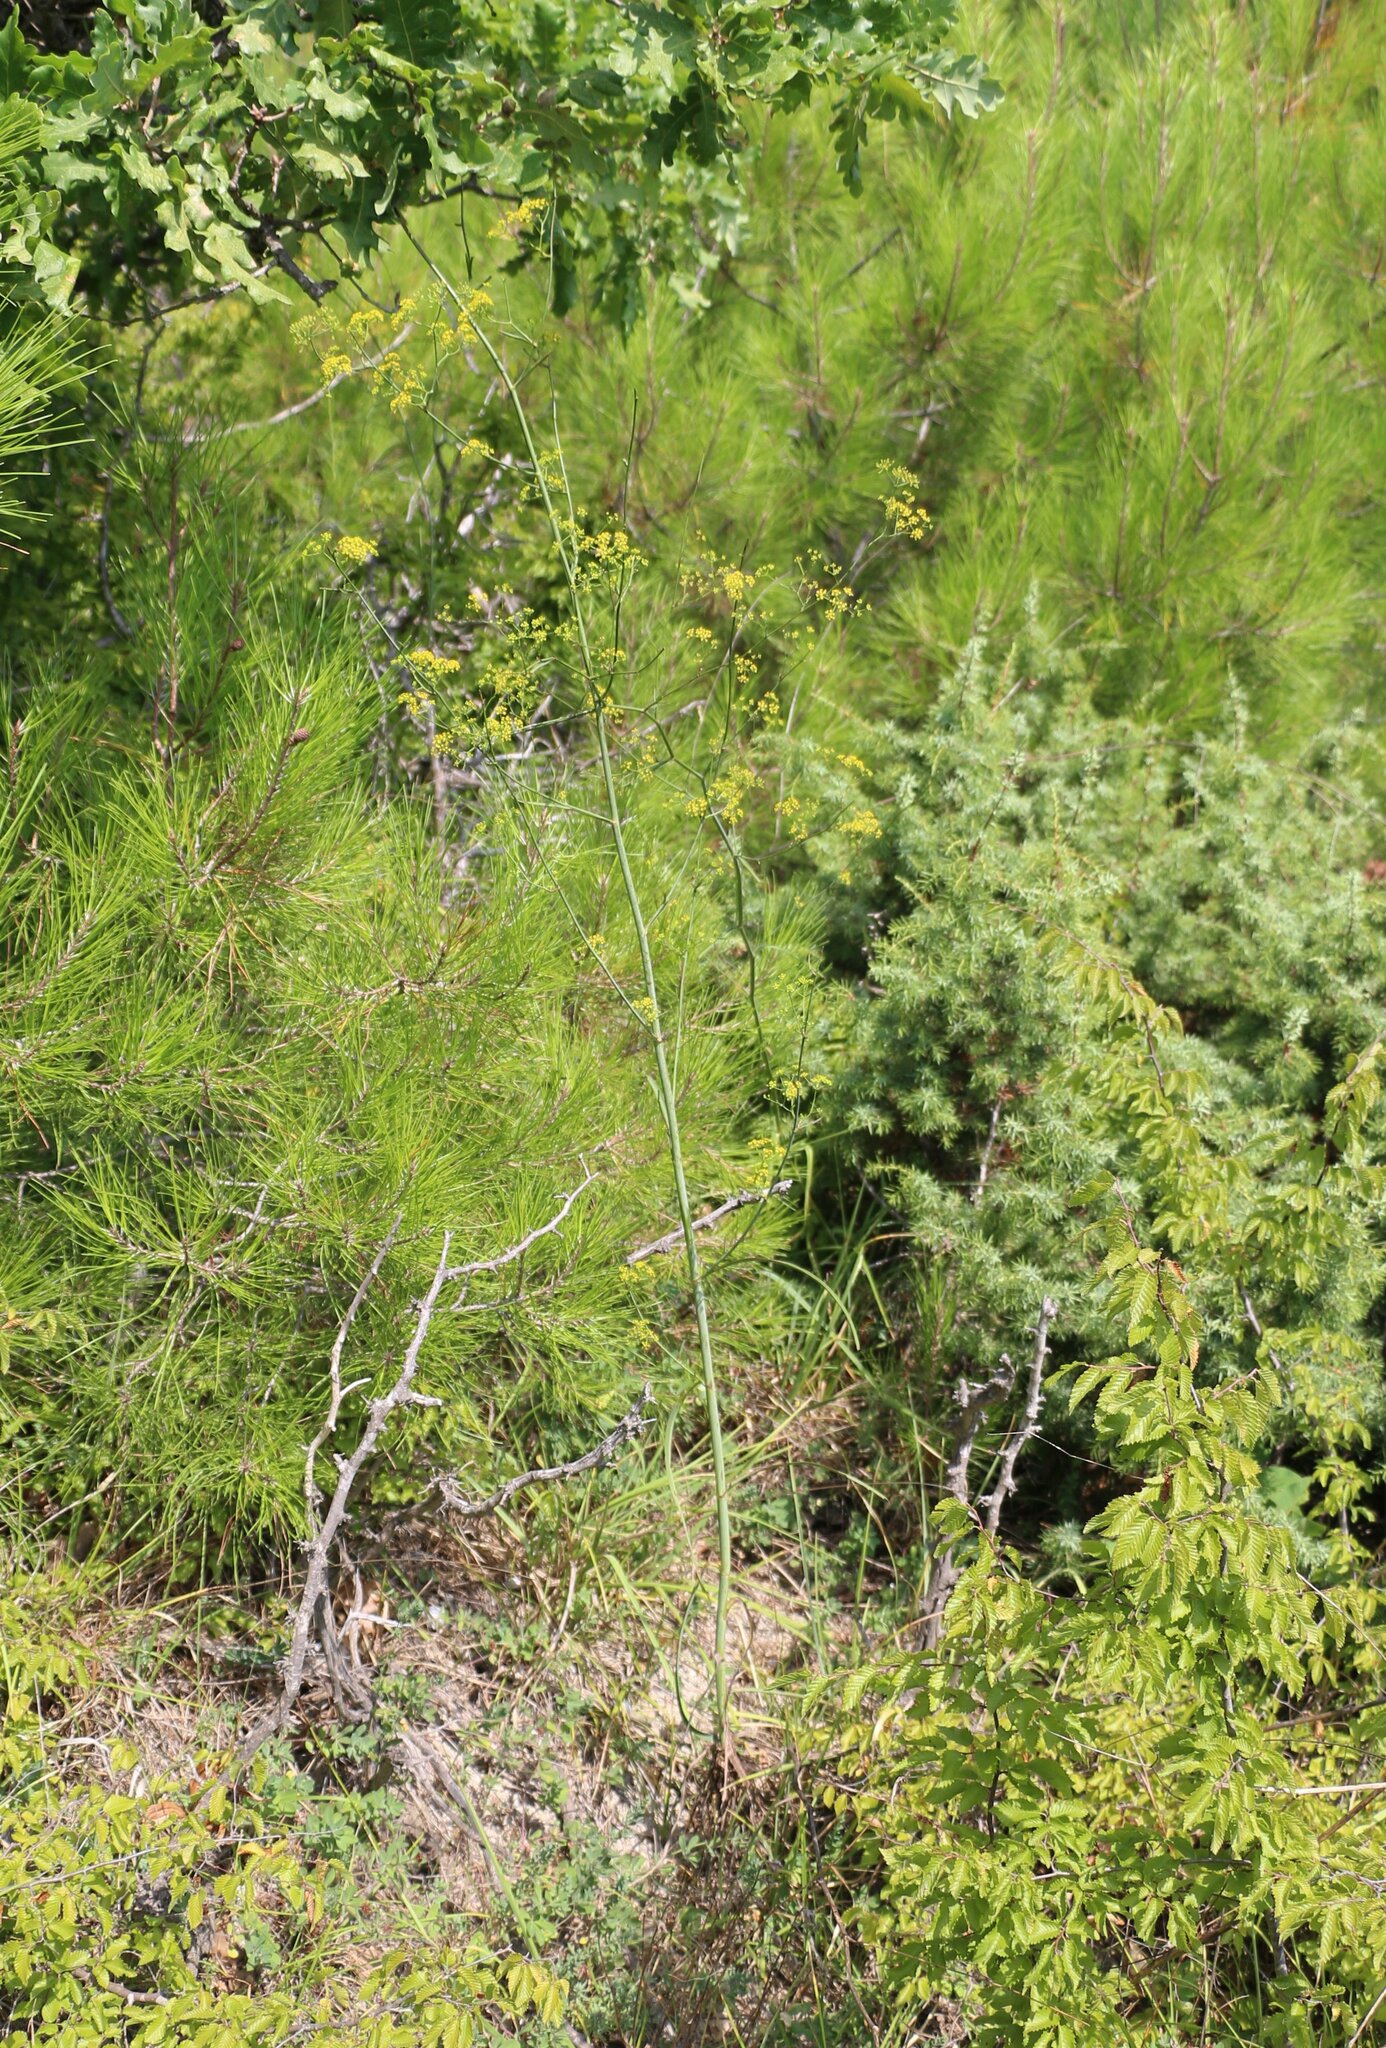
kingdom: Plantae
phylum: Tracheophyta
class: Magnoliopsida
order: Apiales
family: Apiaceae
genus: Bupleurum
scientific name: Bupleurum woronowii
